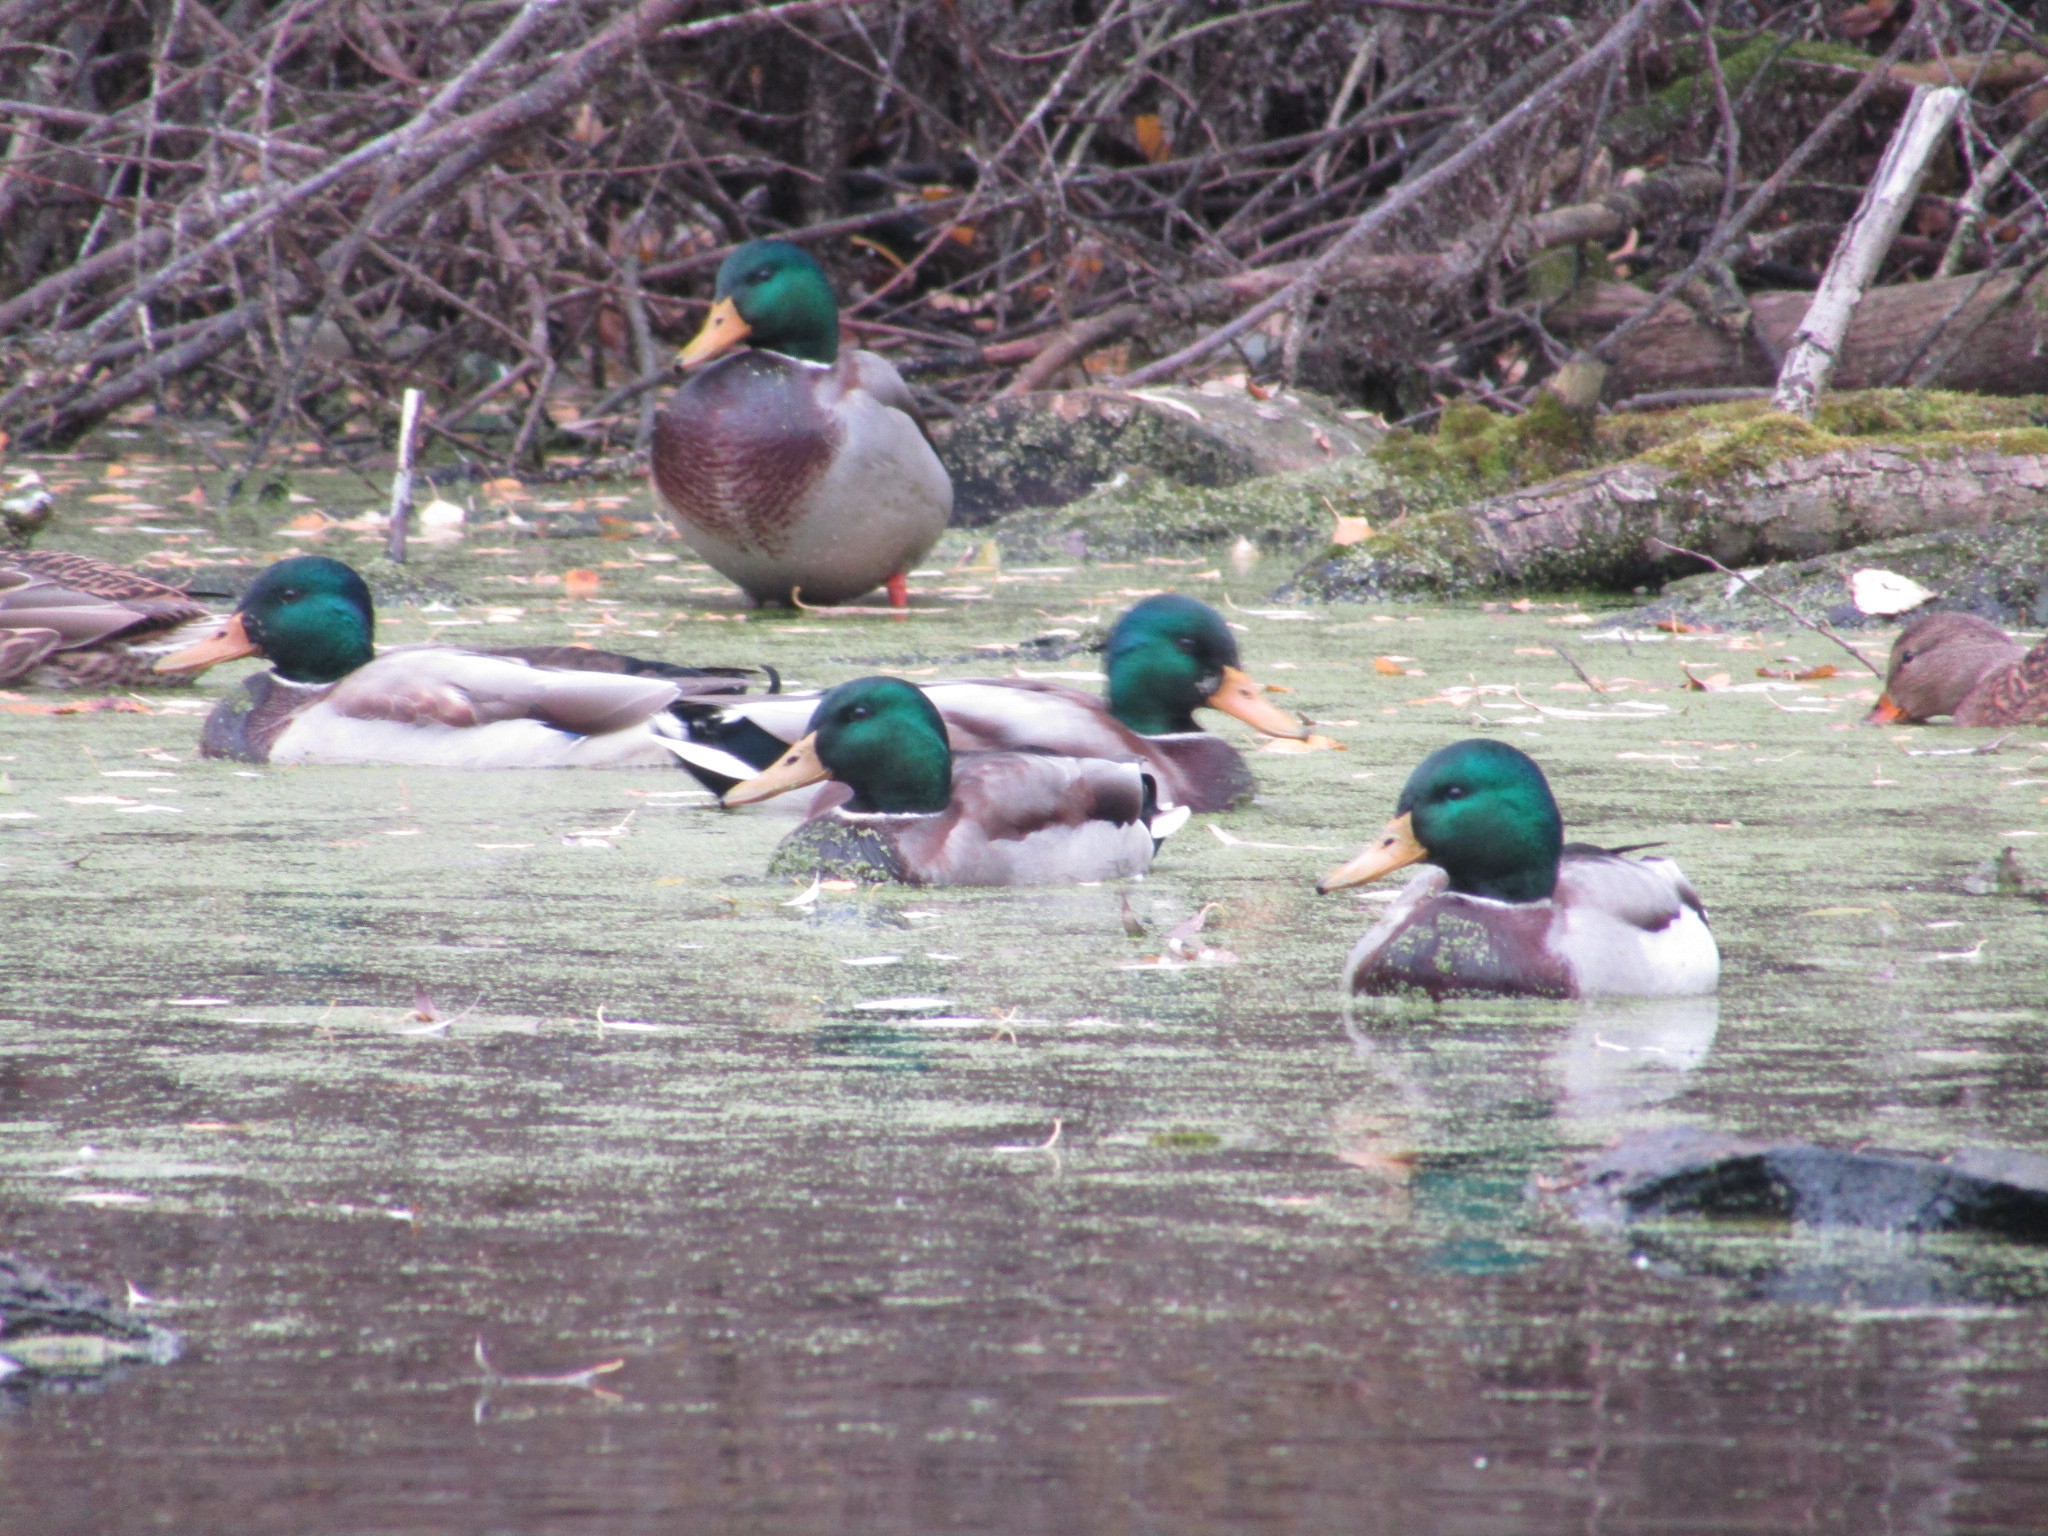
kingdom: Animalia
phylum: Chordata
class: Aves
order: Anseriformes
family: Anatidae
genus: Anas
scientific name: Anas platyrhynchos
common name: Mallard
